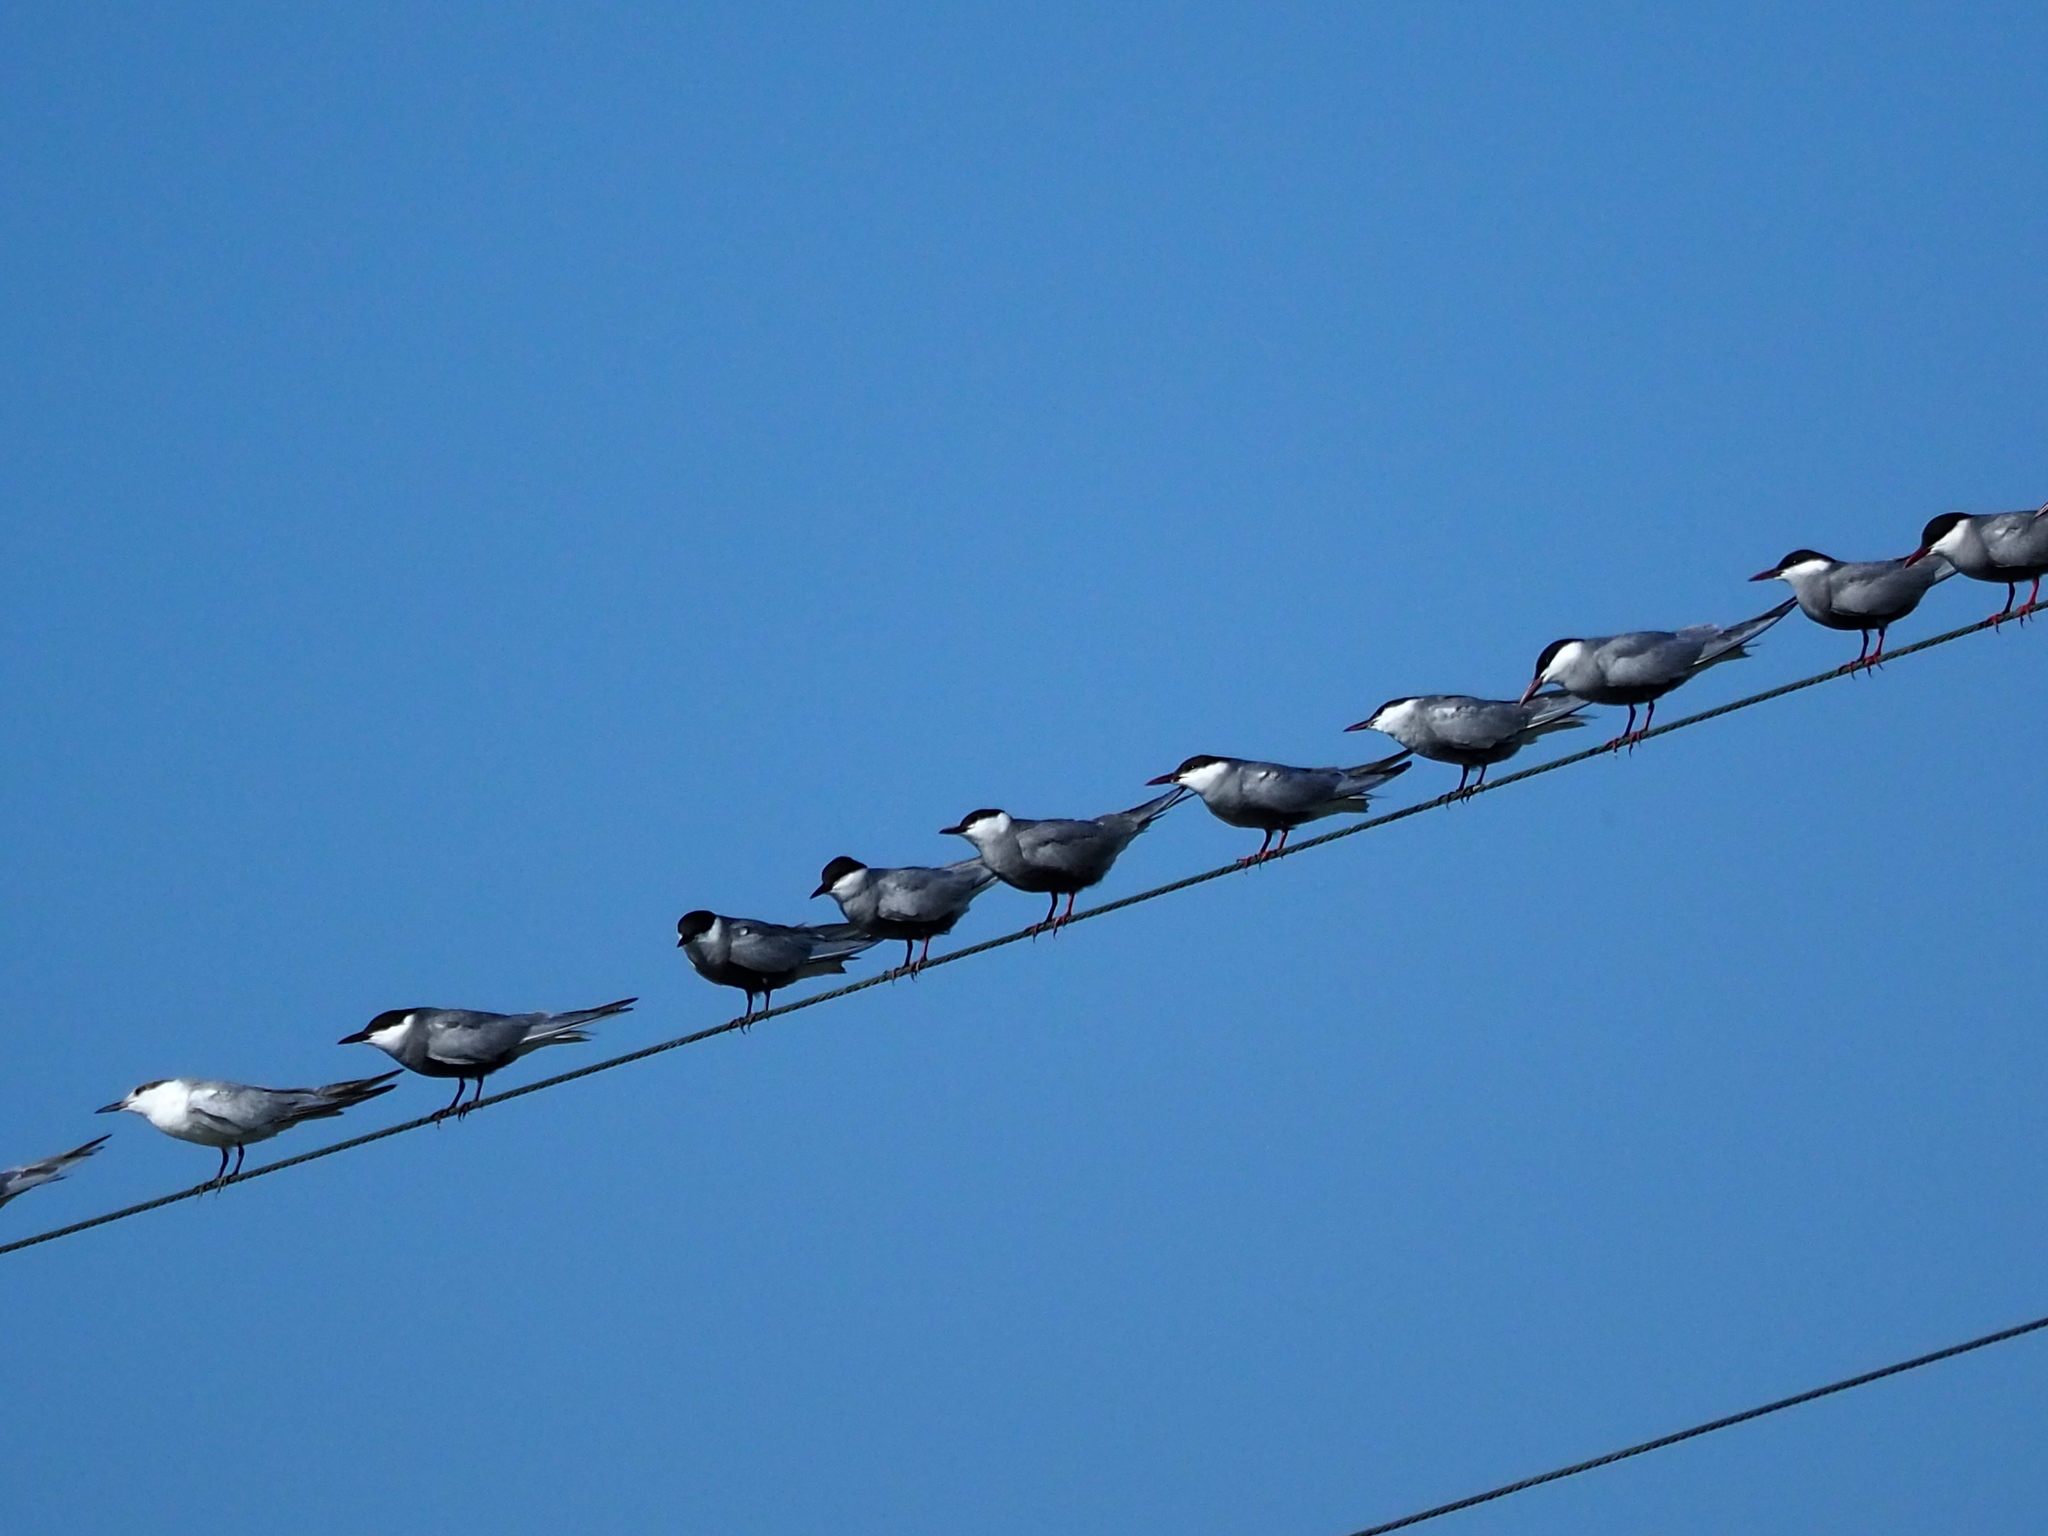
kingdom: Animalia
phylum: Chordata
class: Aves
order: Charadriiformes
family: Laridae
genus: Chlidonias
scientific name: Chlidonias hybrida
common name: Whiskered tern
